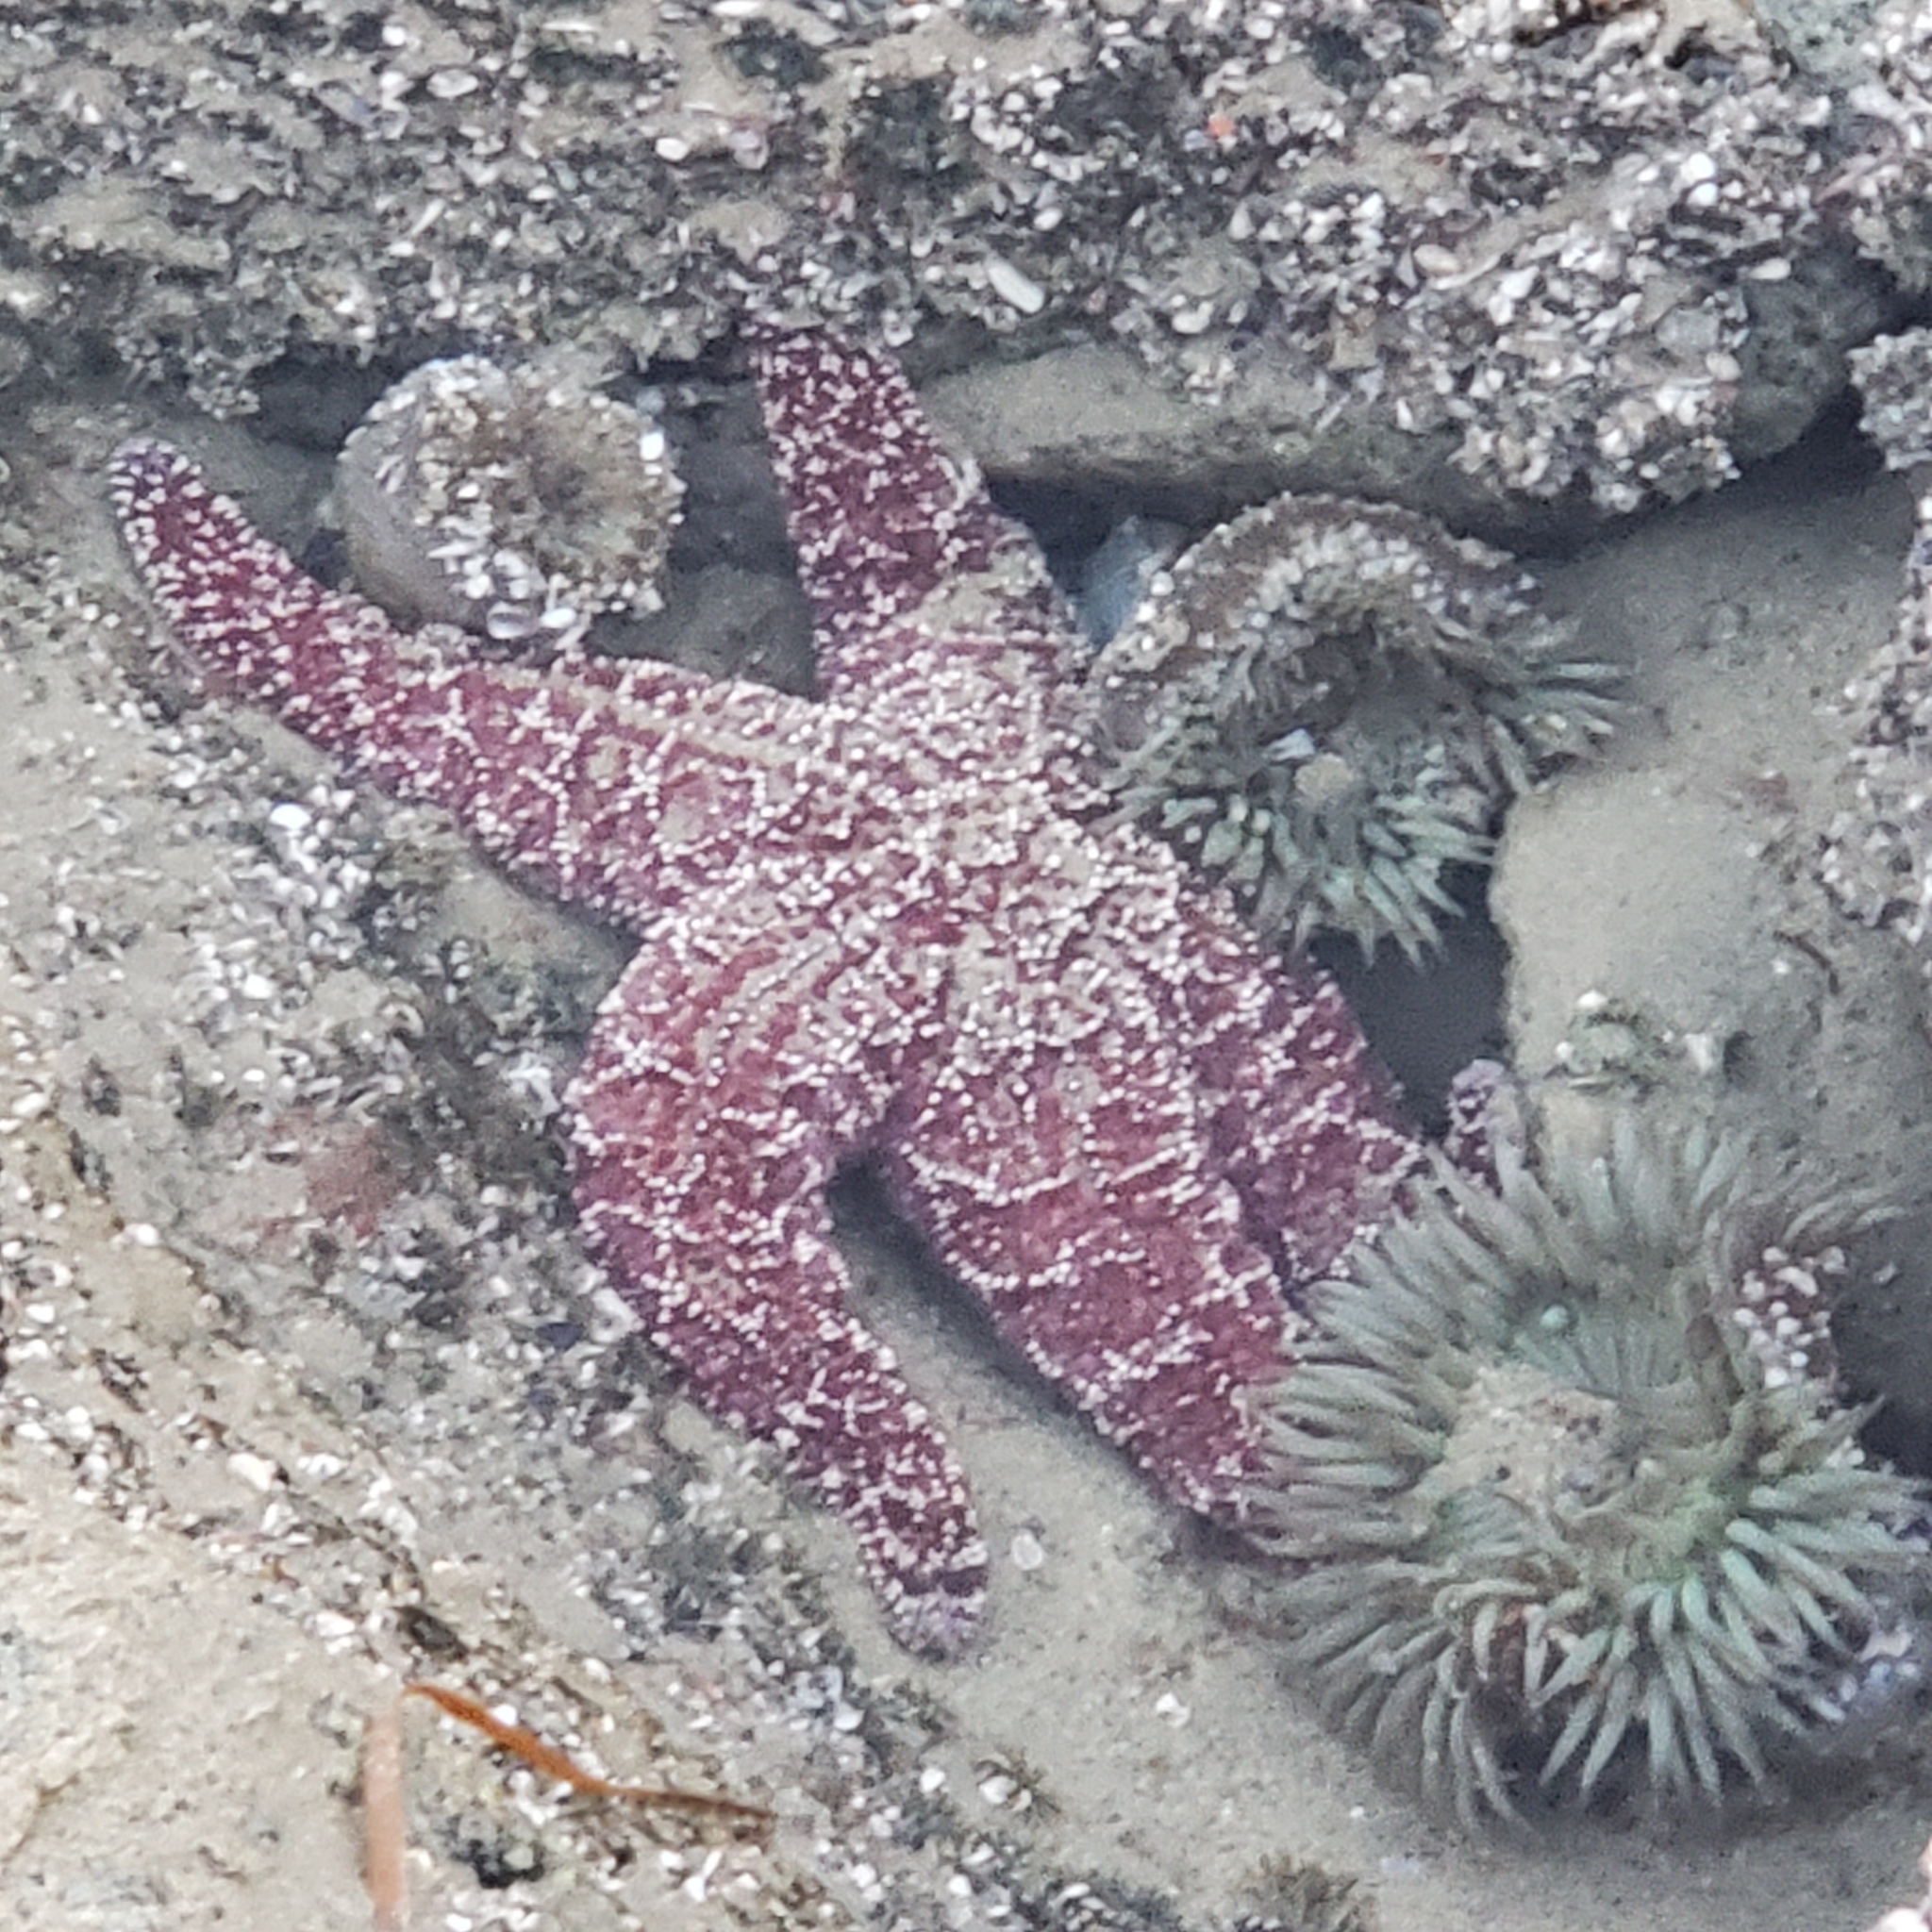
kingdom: Animalia
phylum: Echinodermata
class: Asteroidea
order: Forcipulatida
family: Asteriidae
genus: Pisaster
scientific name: Pisaster ochraceus
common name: Ochre stars
